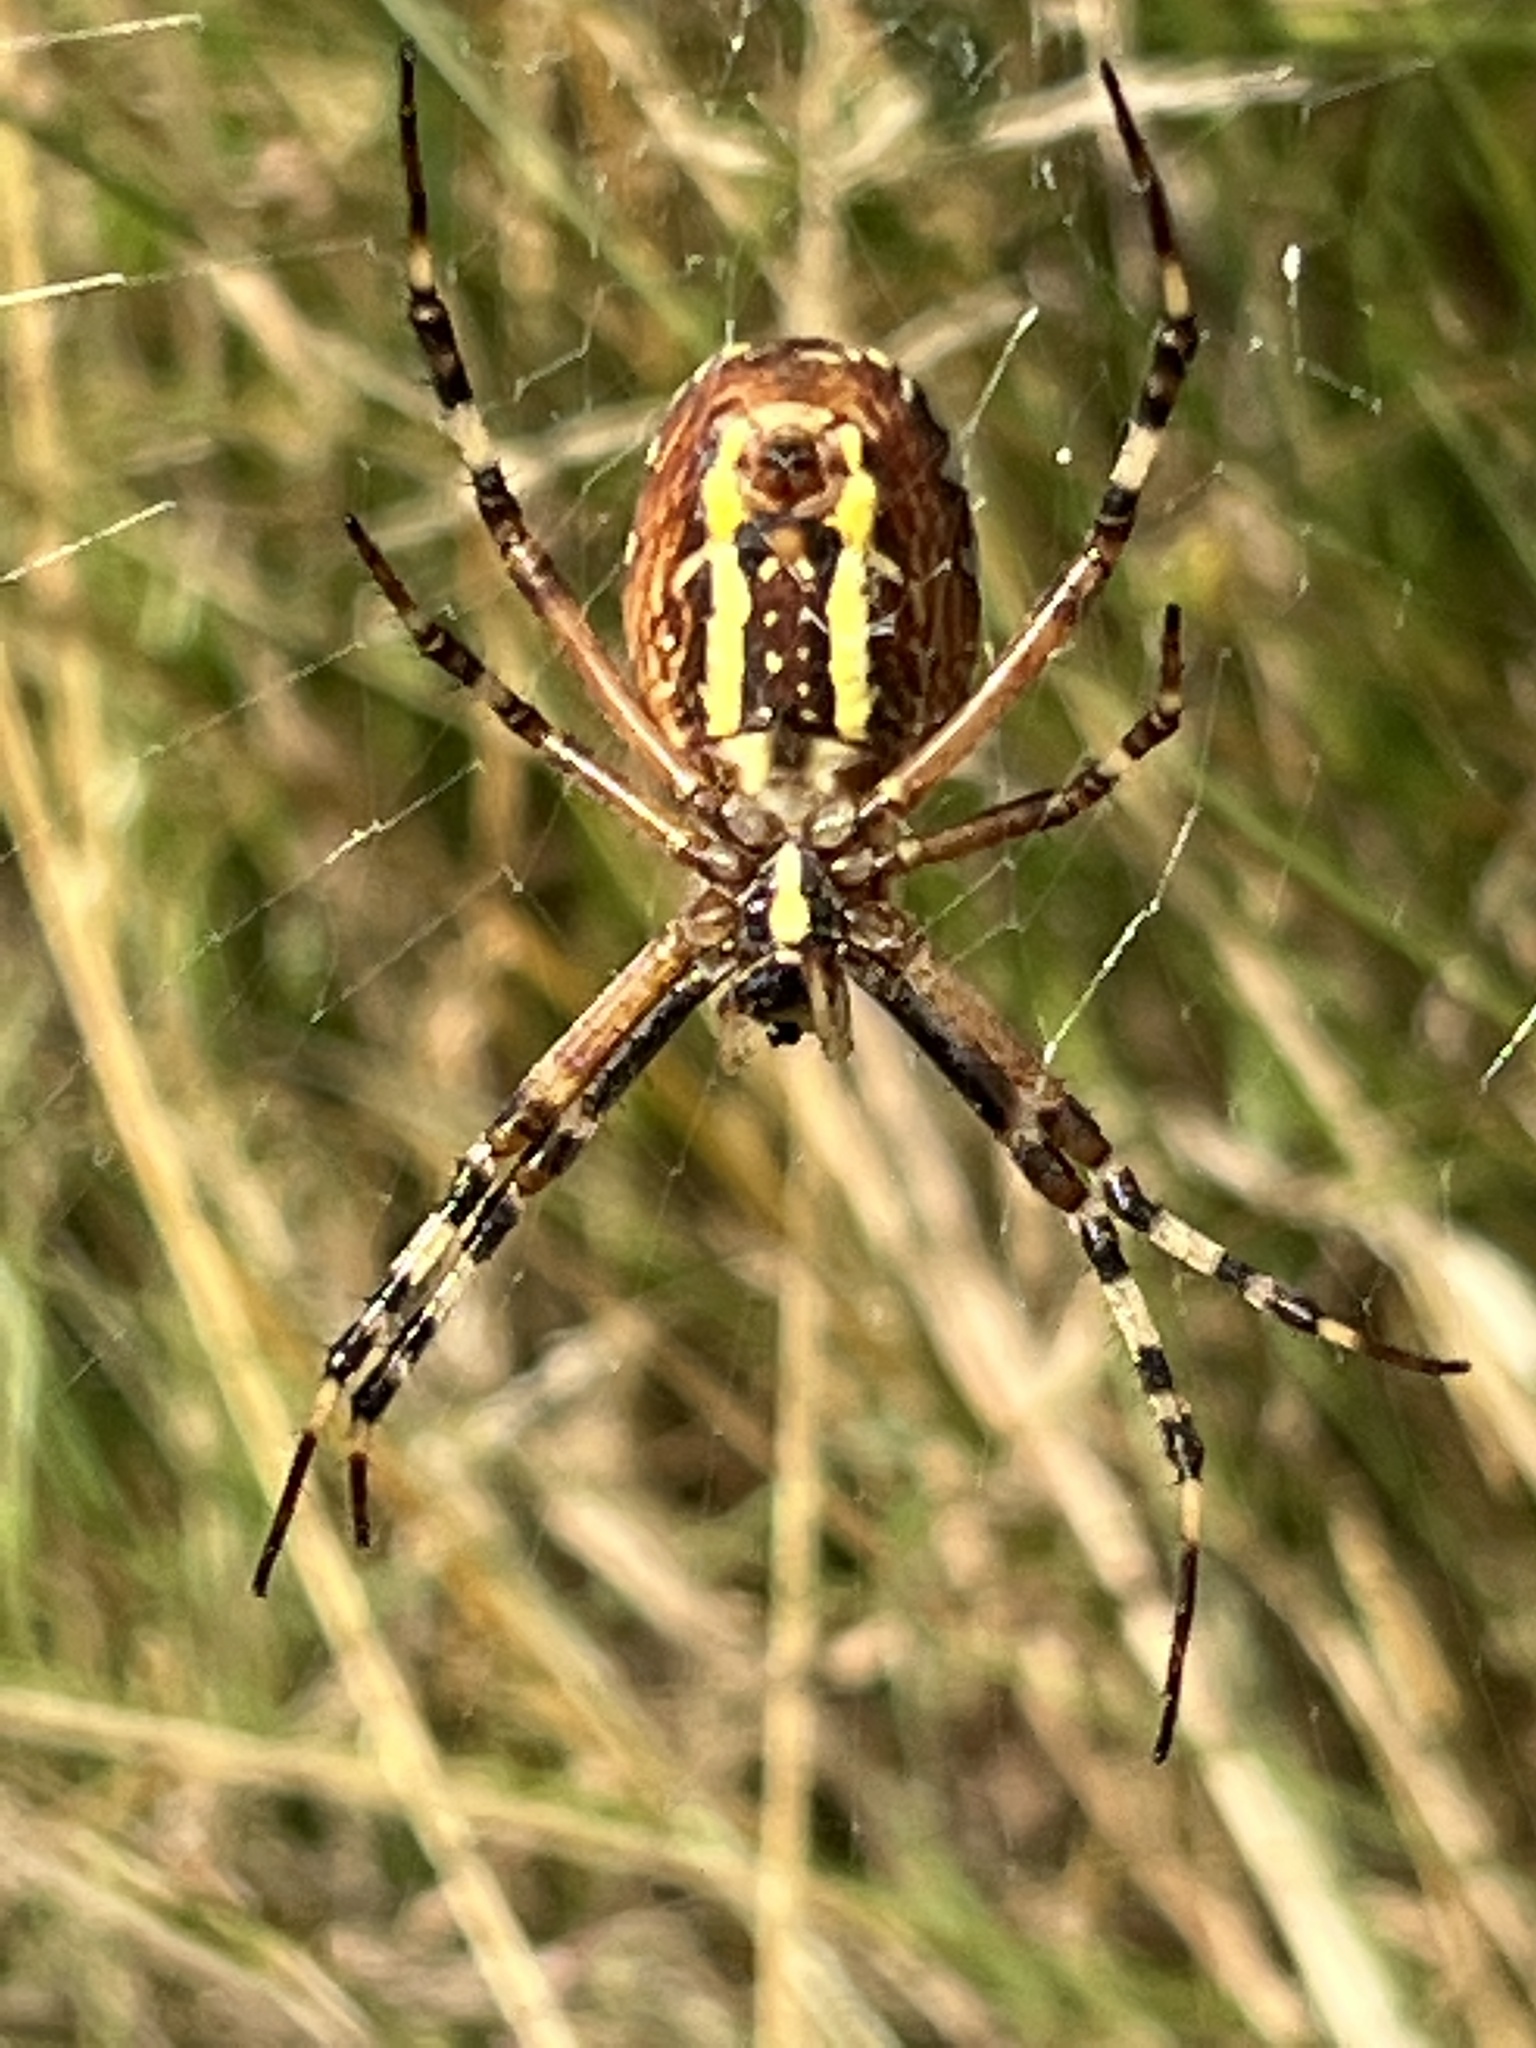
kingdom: Animalia
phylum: Arthropoda
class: Arachnida
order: Araneae
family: Araneidae
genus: Argiope
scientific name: Argiope bruennichi
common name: Wasp spider
